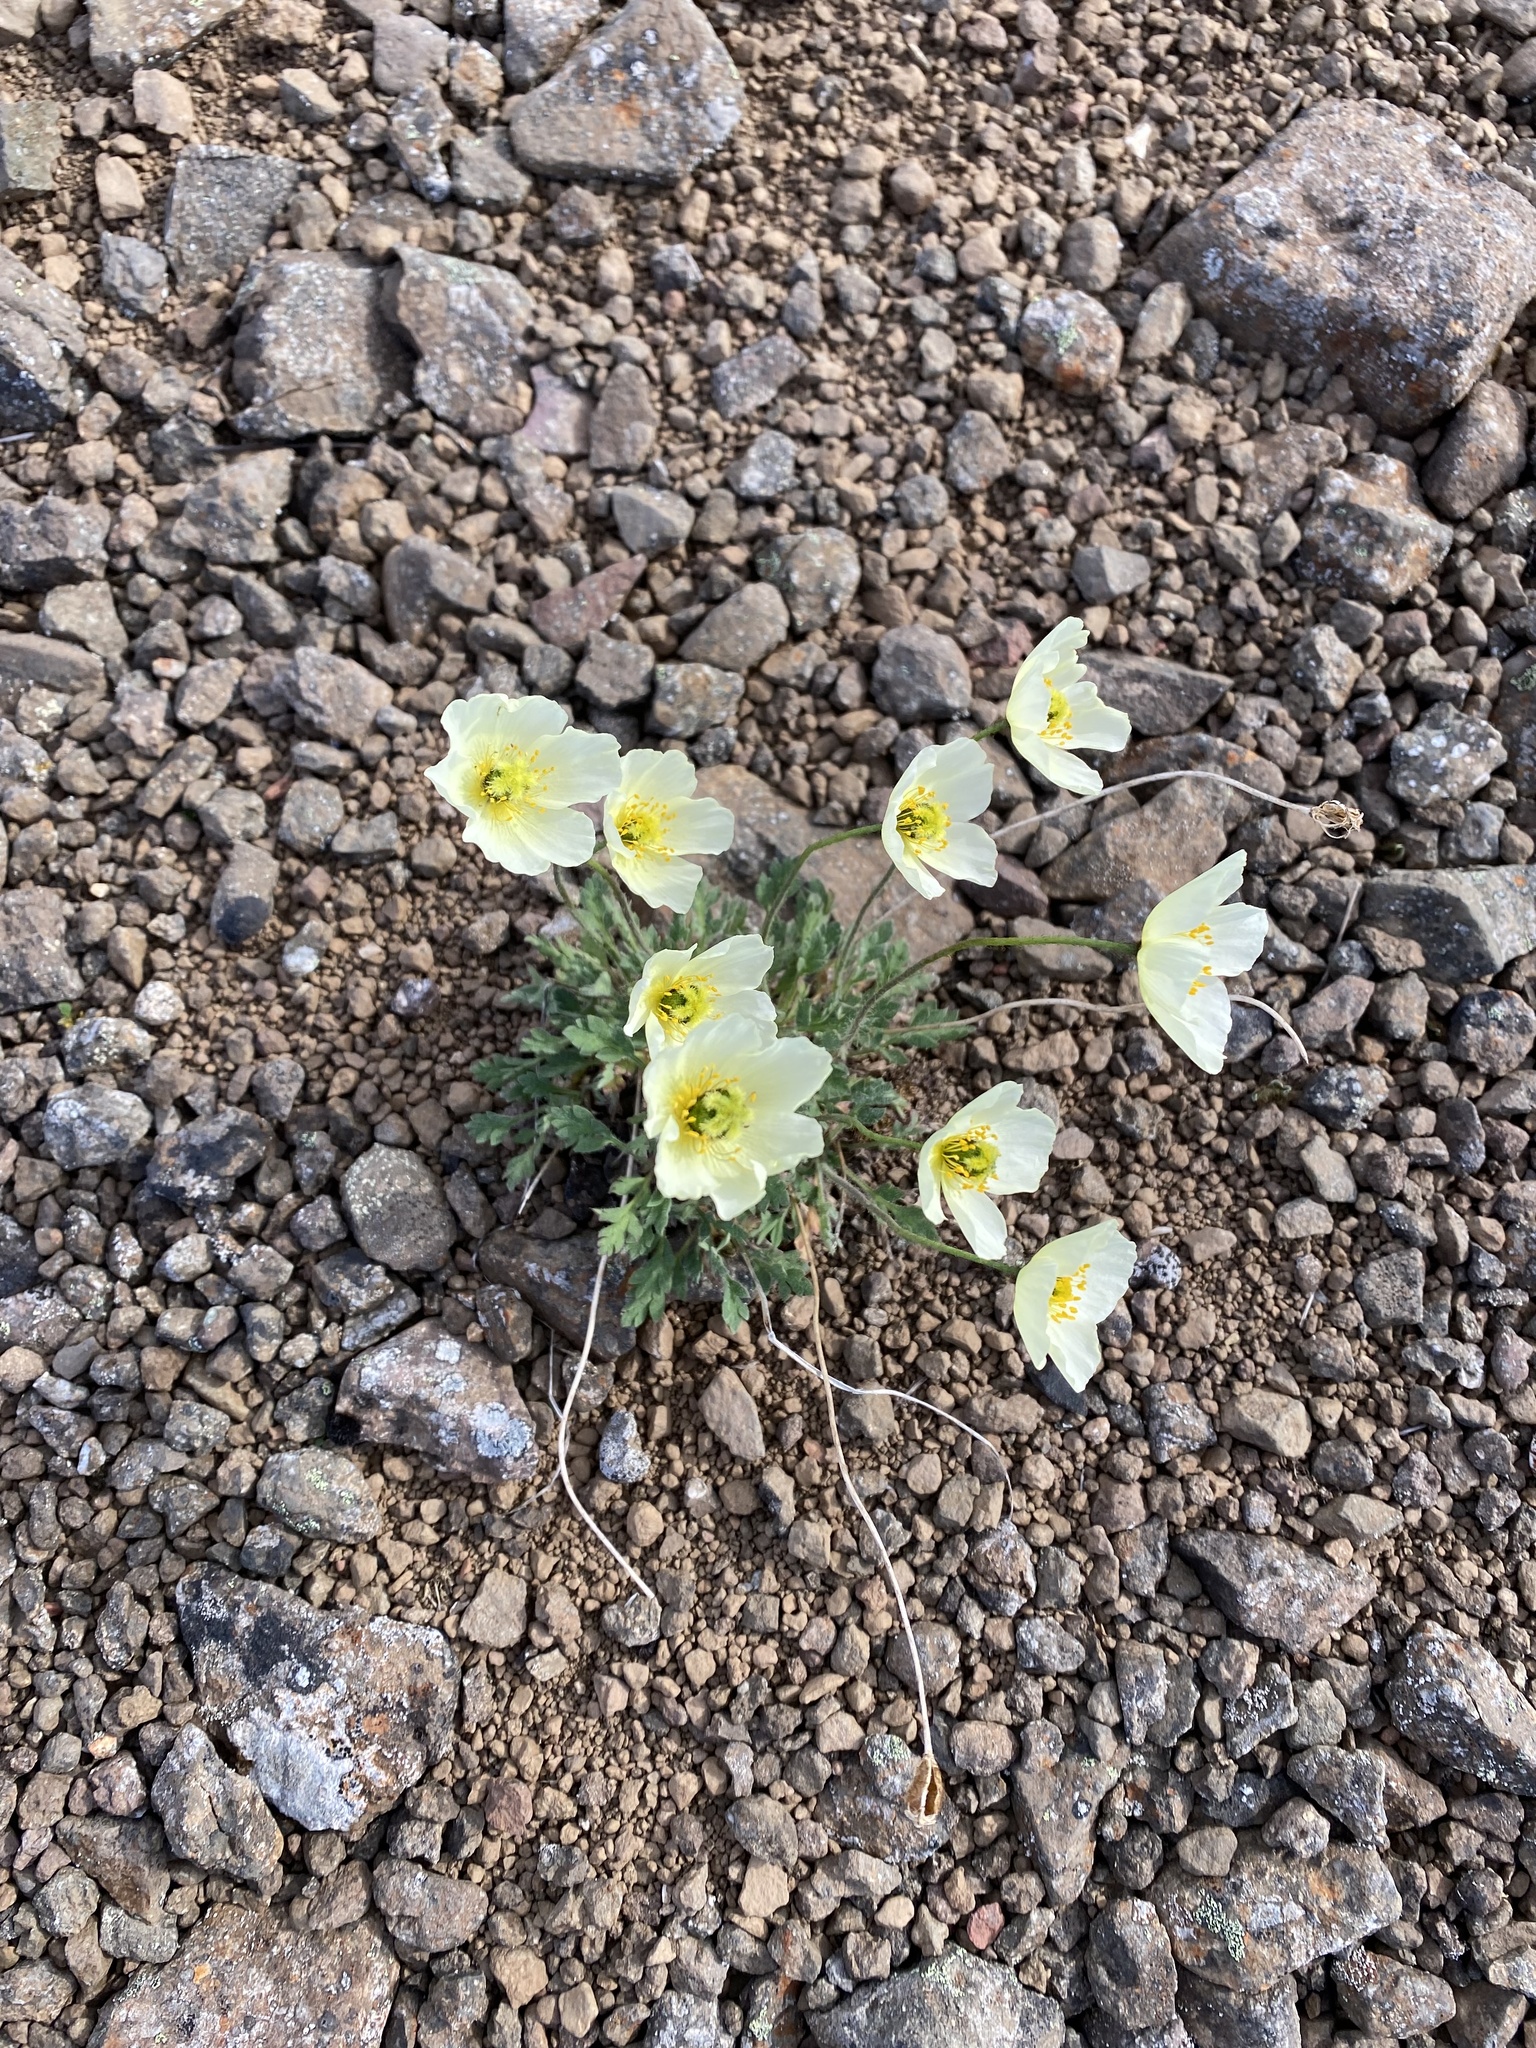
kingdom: Plantae
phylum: Tracheophyta
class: Magnoliopsida
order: Ranunculales
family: Papaveraceae
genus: Papaver
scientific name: Papaver pulvinatum
